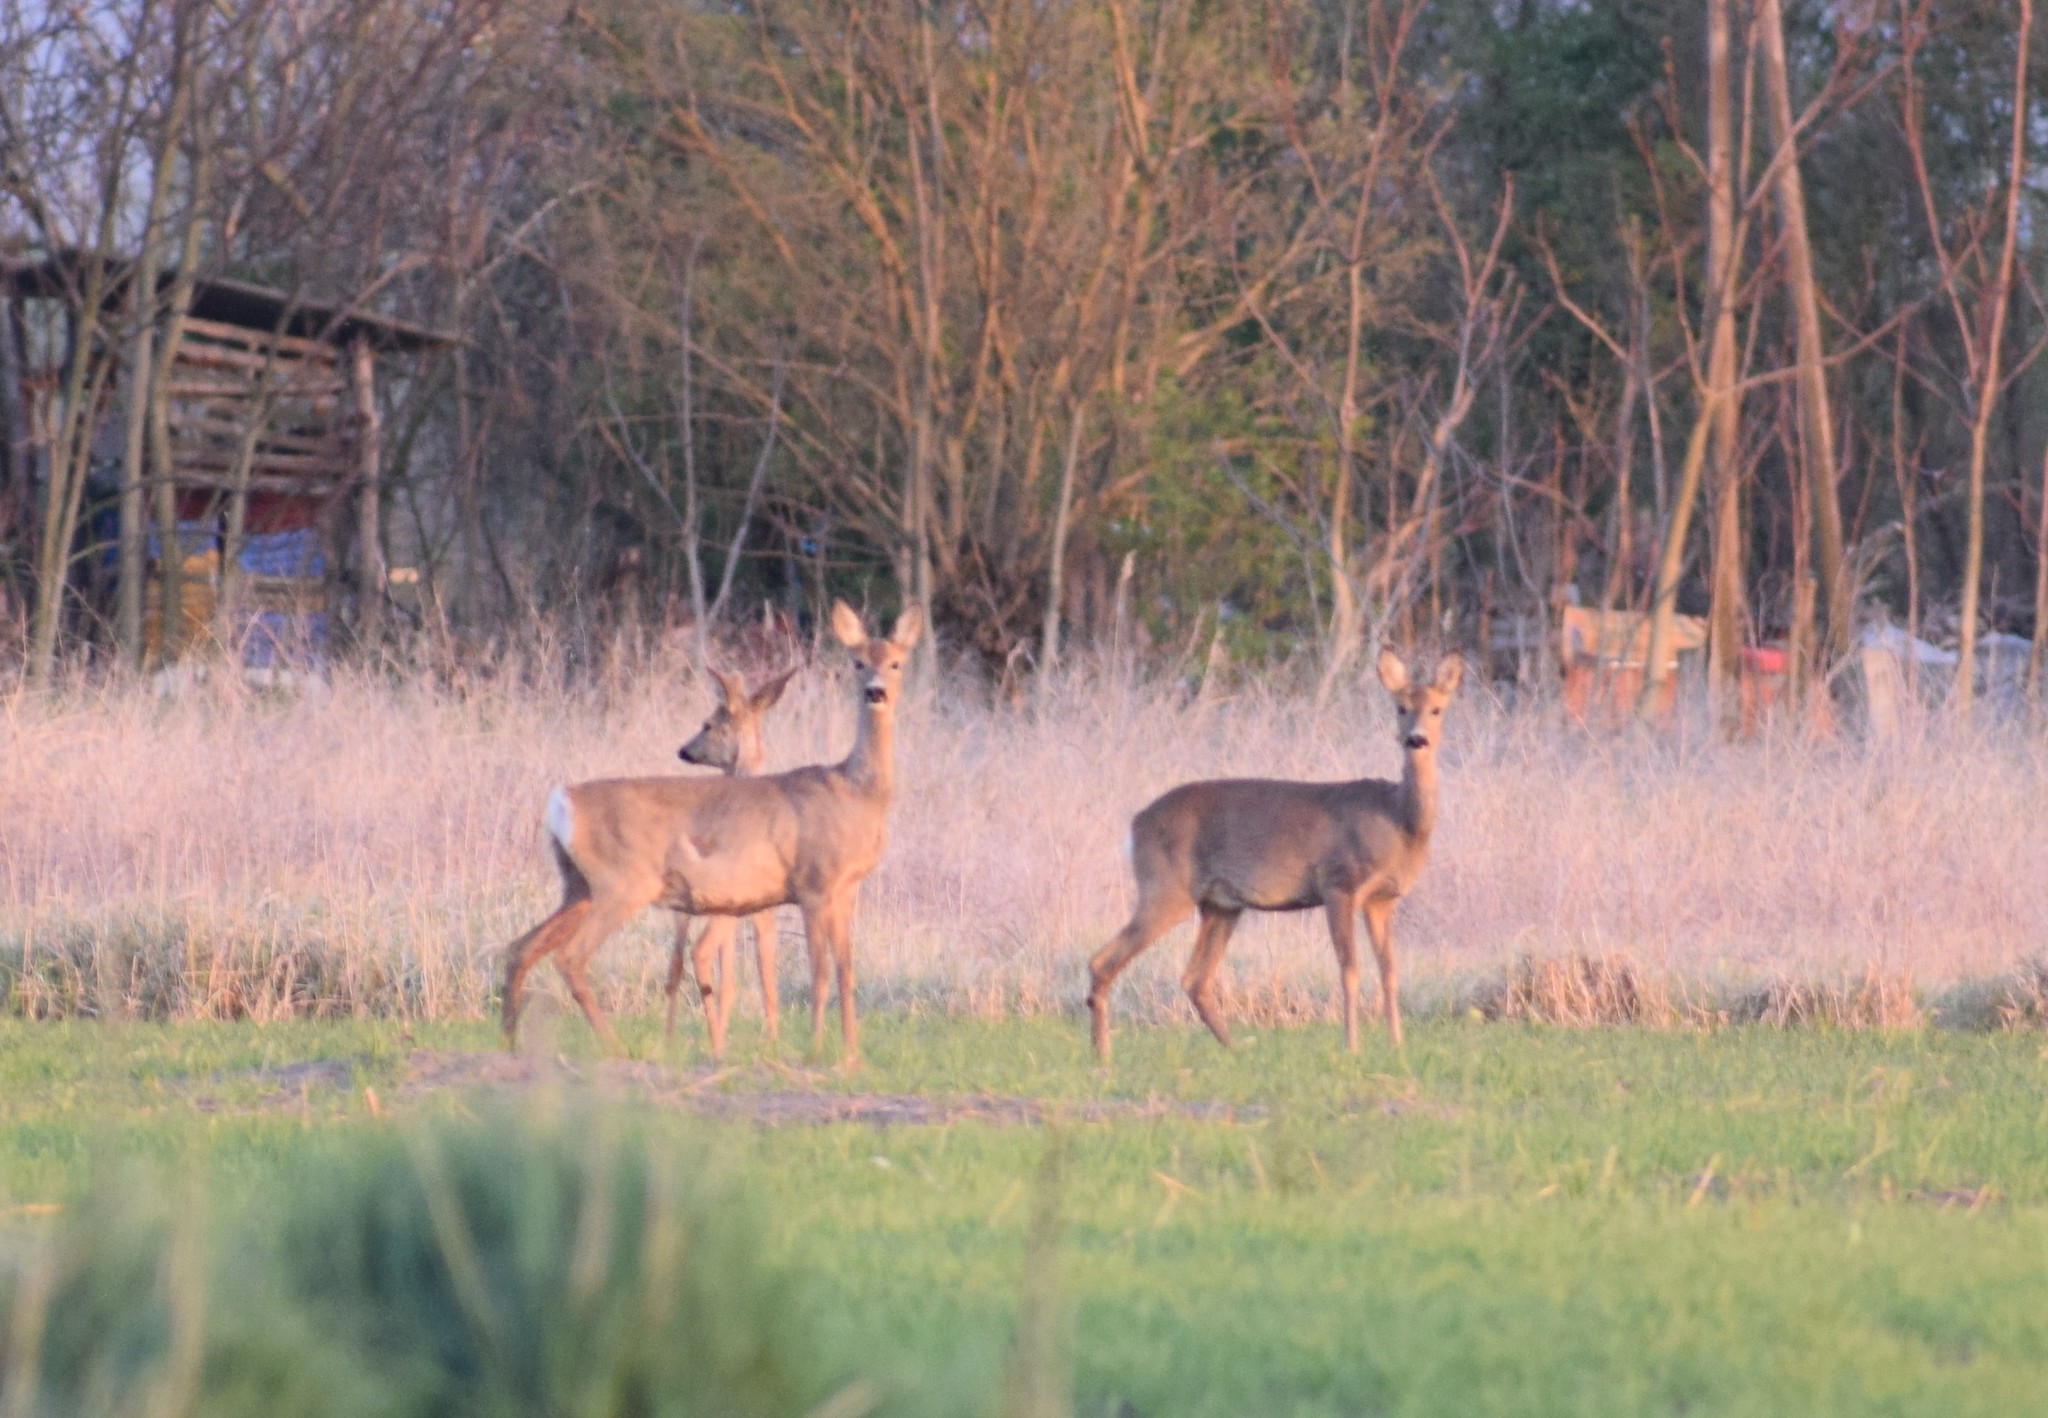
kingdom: Animalia
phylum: Chordata
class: Mammalia
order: Artiodactyla
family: Cervidae
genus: Capreolus
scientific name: Capreolus capreolus
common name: Western roe deer
